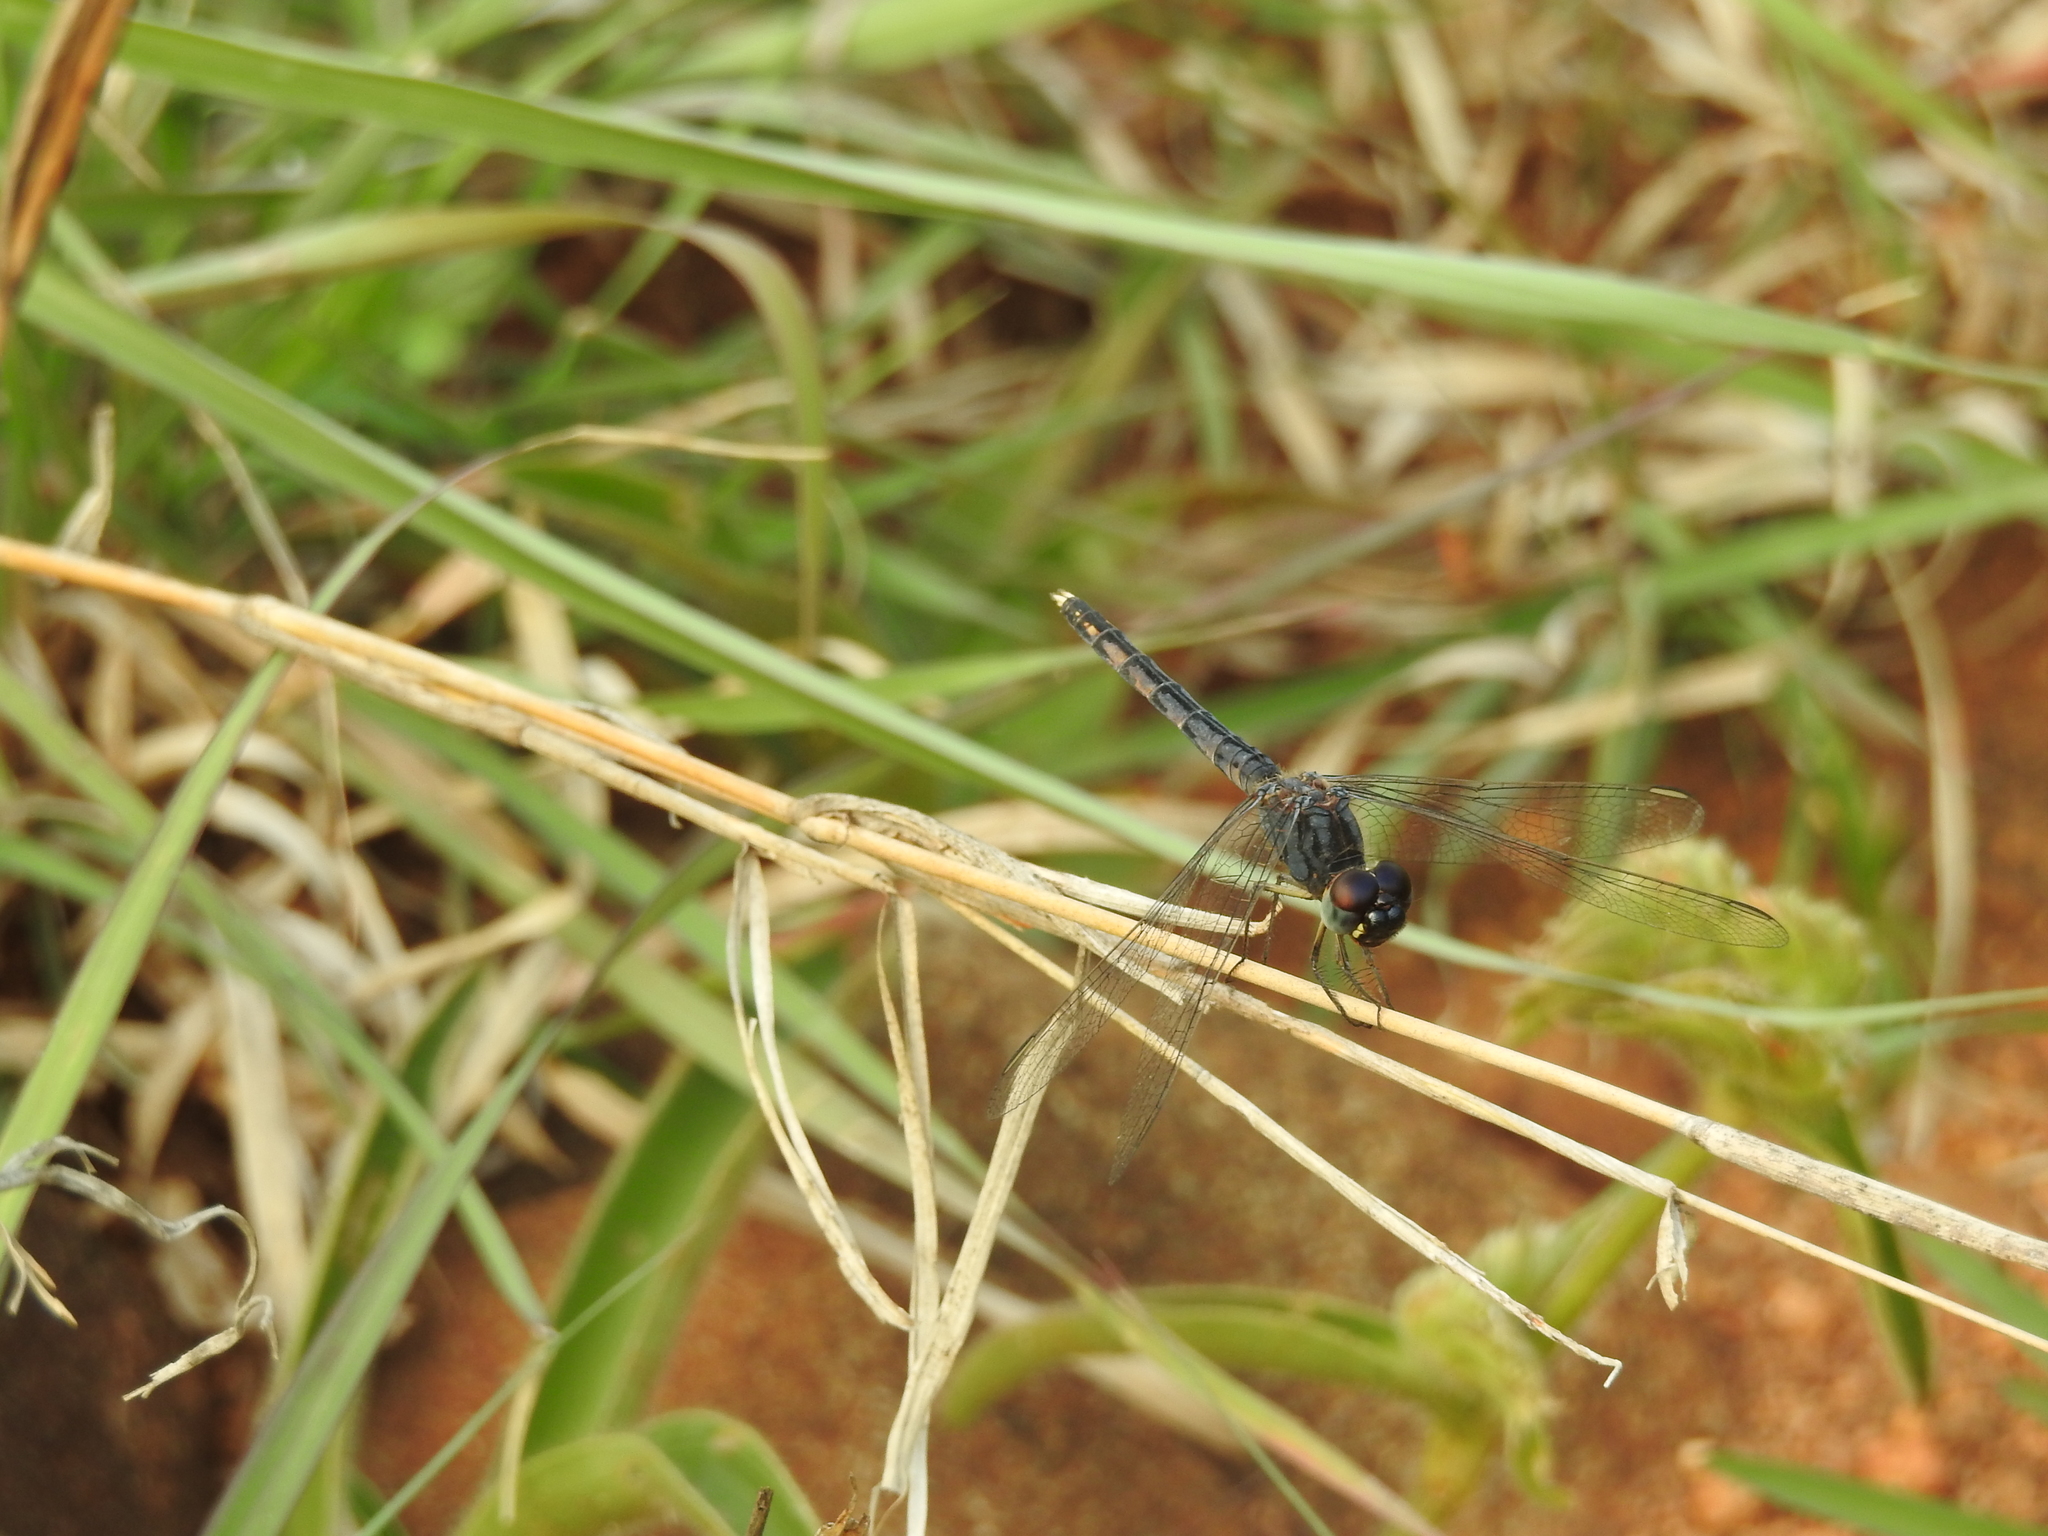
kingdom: Animalia
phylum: Arthropoda
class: Insecta
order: Odonata
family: Libellulidae
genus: Indothemis
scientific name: Indothemis carnatica
